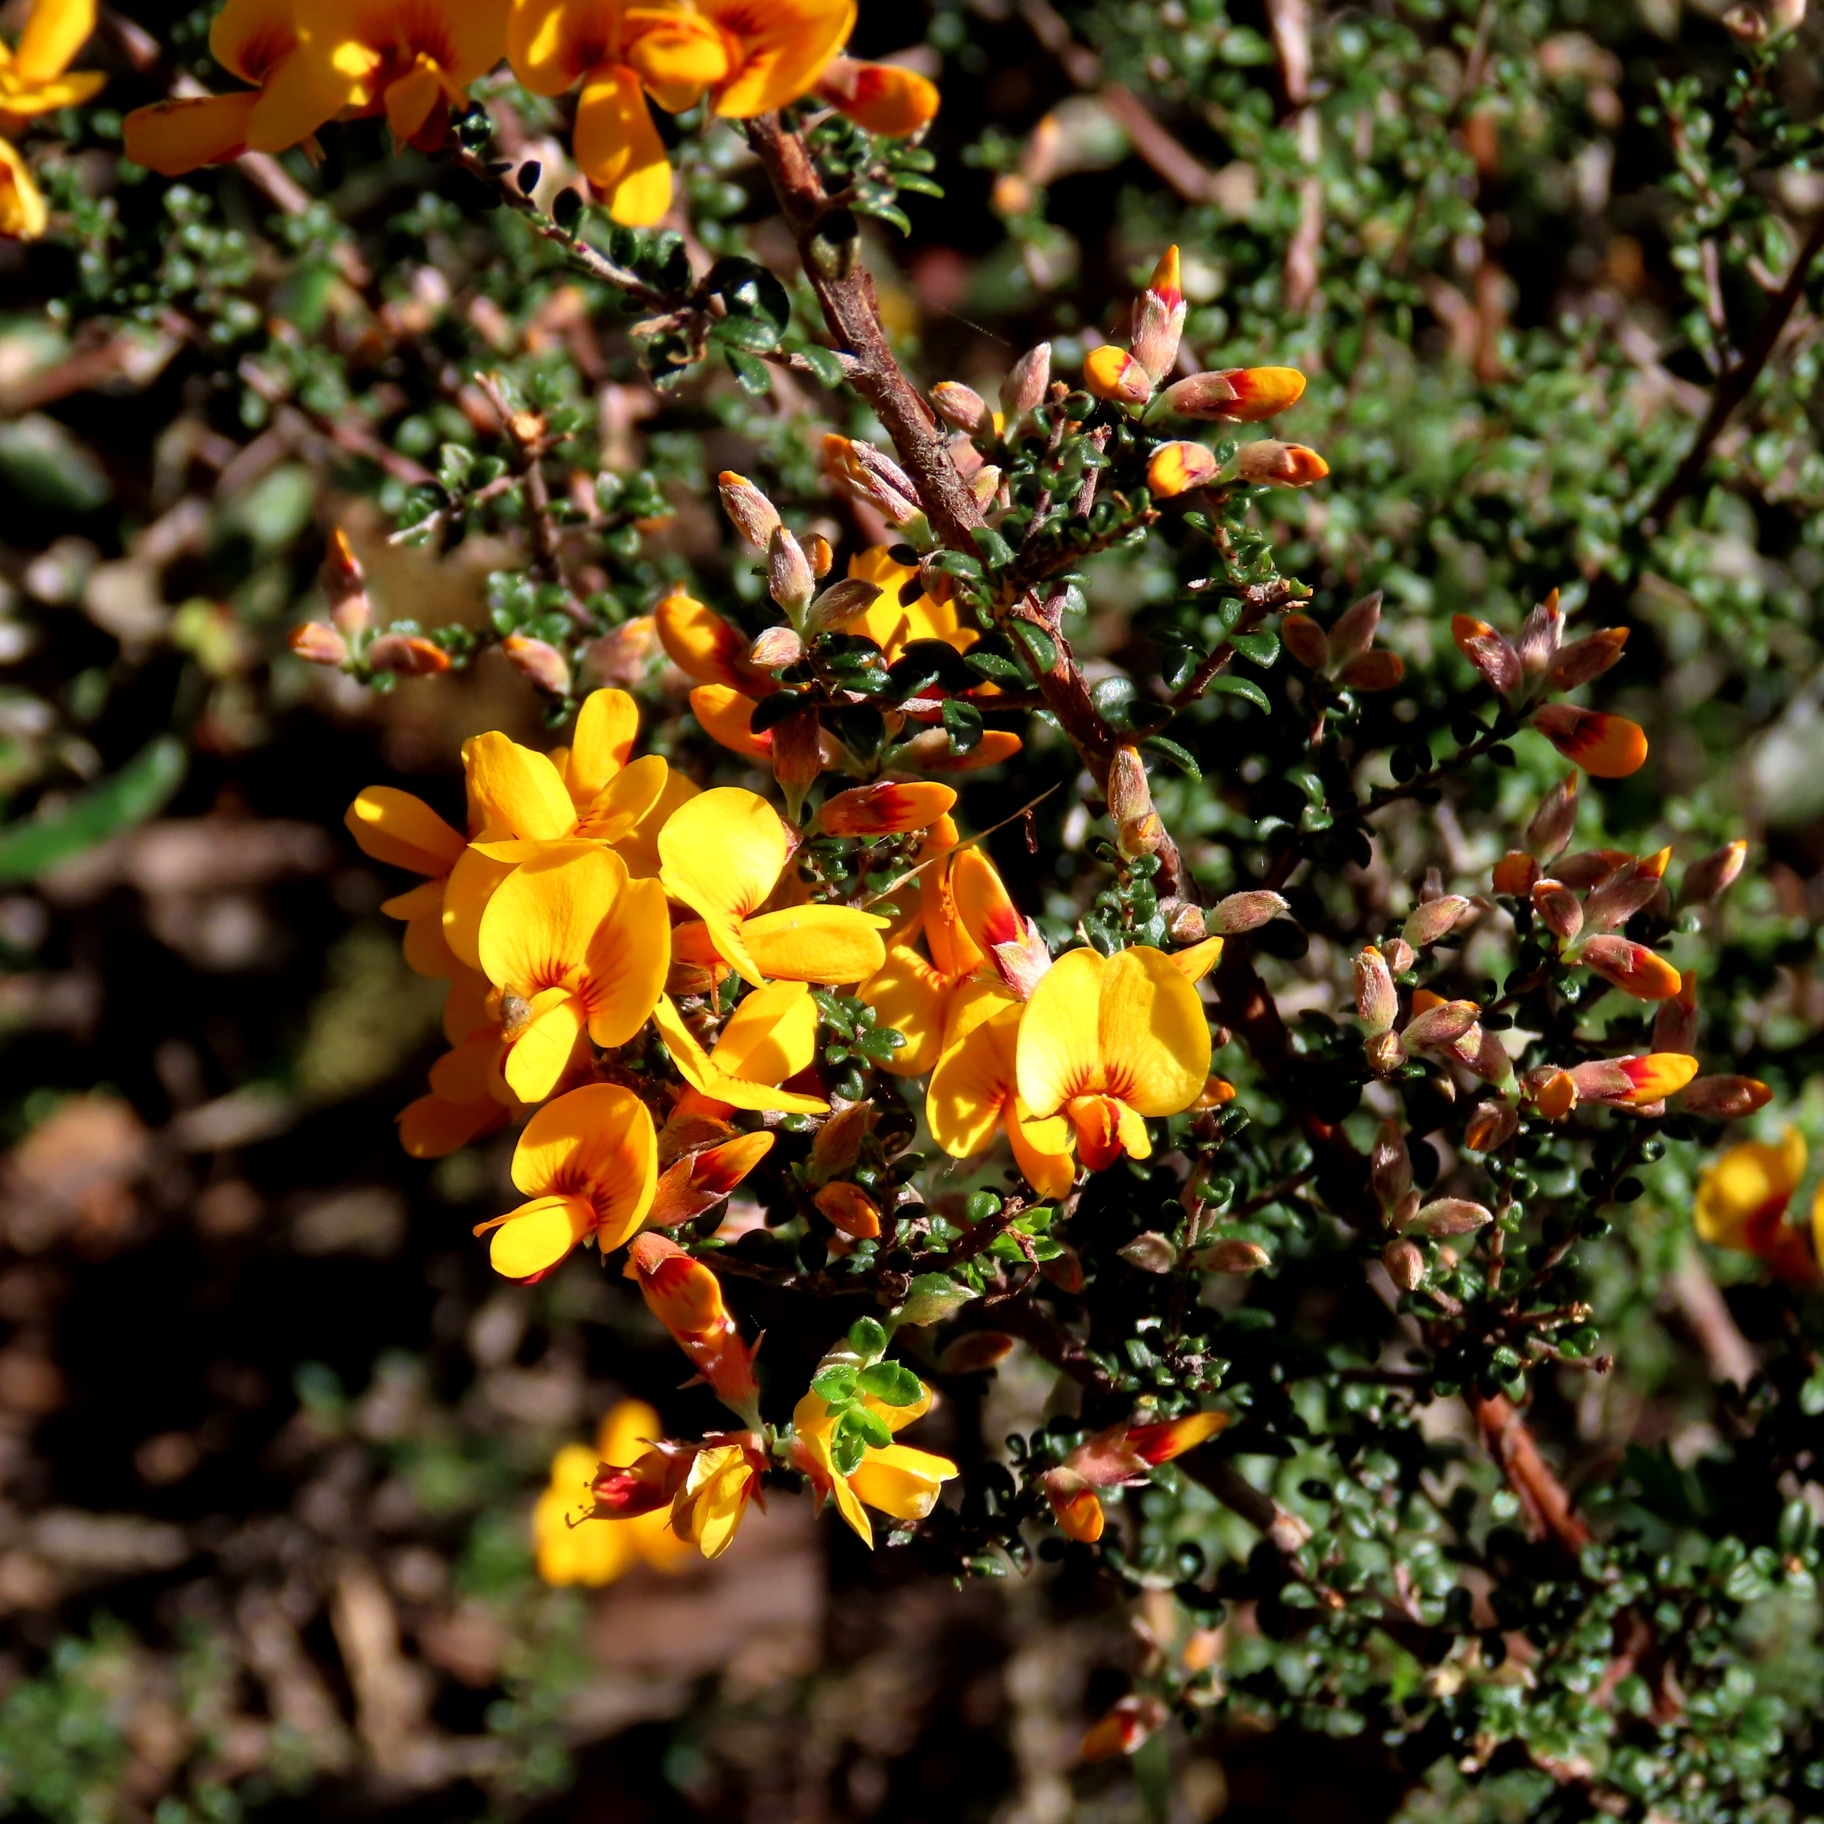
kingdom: Plantae
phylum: Tracheophyta
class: Magnoliopsida
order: Fabales
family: Fabaceae
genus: Pultenaea
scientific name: Pultenaea gunnii
